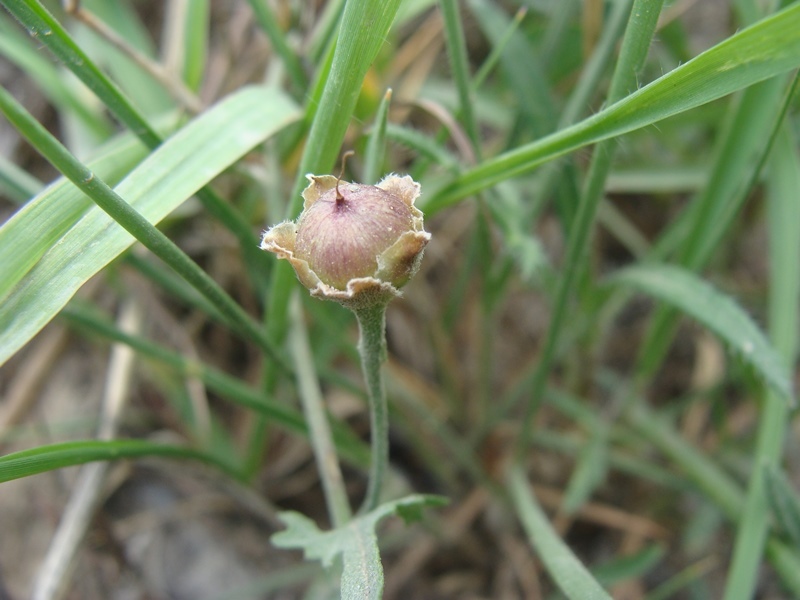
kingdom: Plantae
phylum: Tracheophyta
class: Magnoliopsida
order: Solanales
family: Convolvulaceae
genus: Convolvulus
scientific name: Convolvulus equitans
